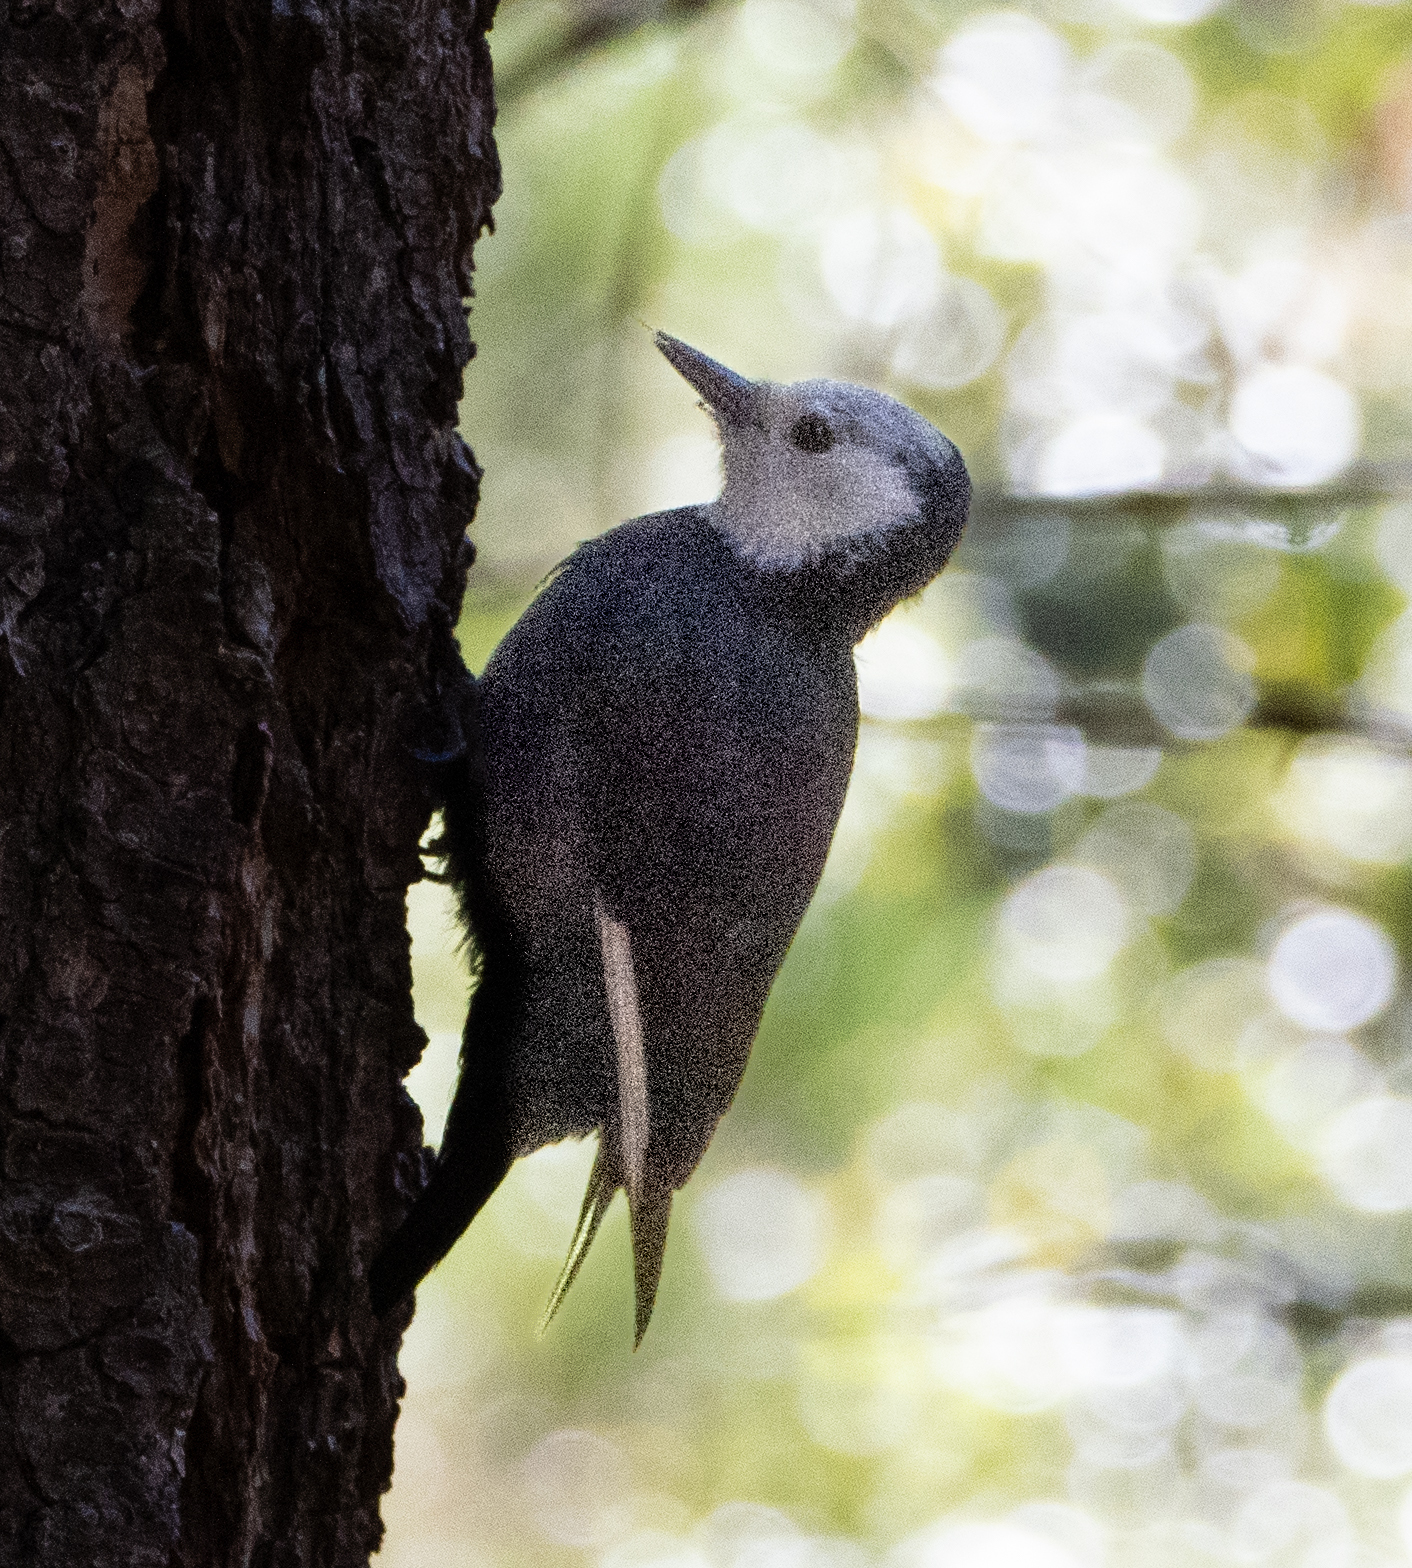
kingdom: Animalia
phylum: Chordata
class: Aves
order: Piciformes
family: Picidae
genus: Leuconotopicus
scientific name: Leuconotopicus albolarvatus
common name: White-headed woodpecker
